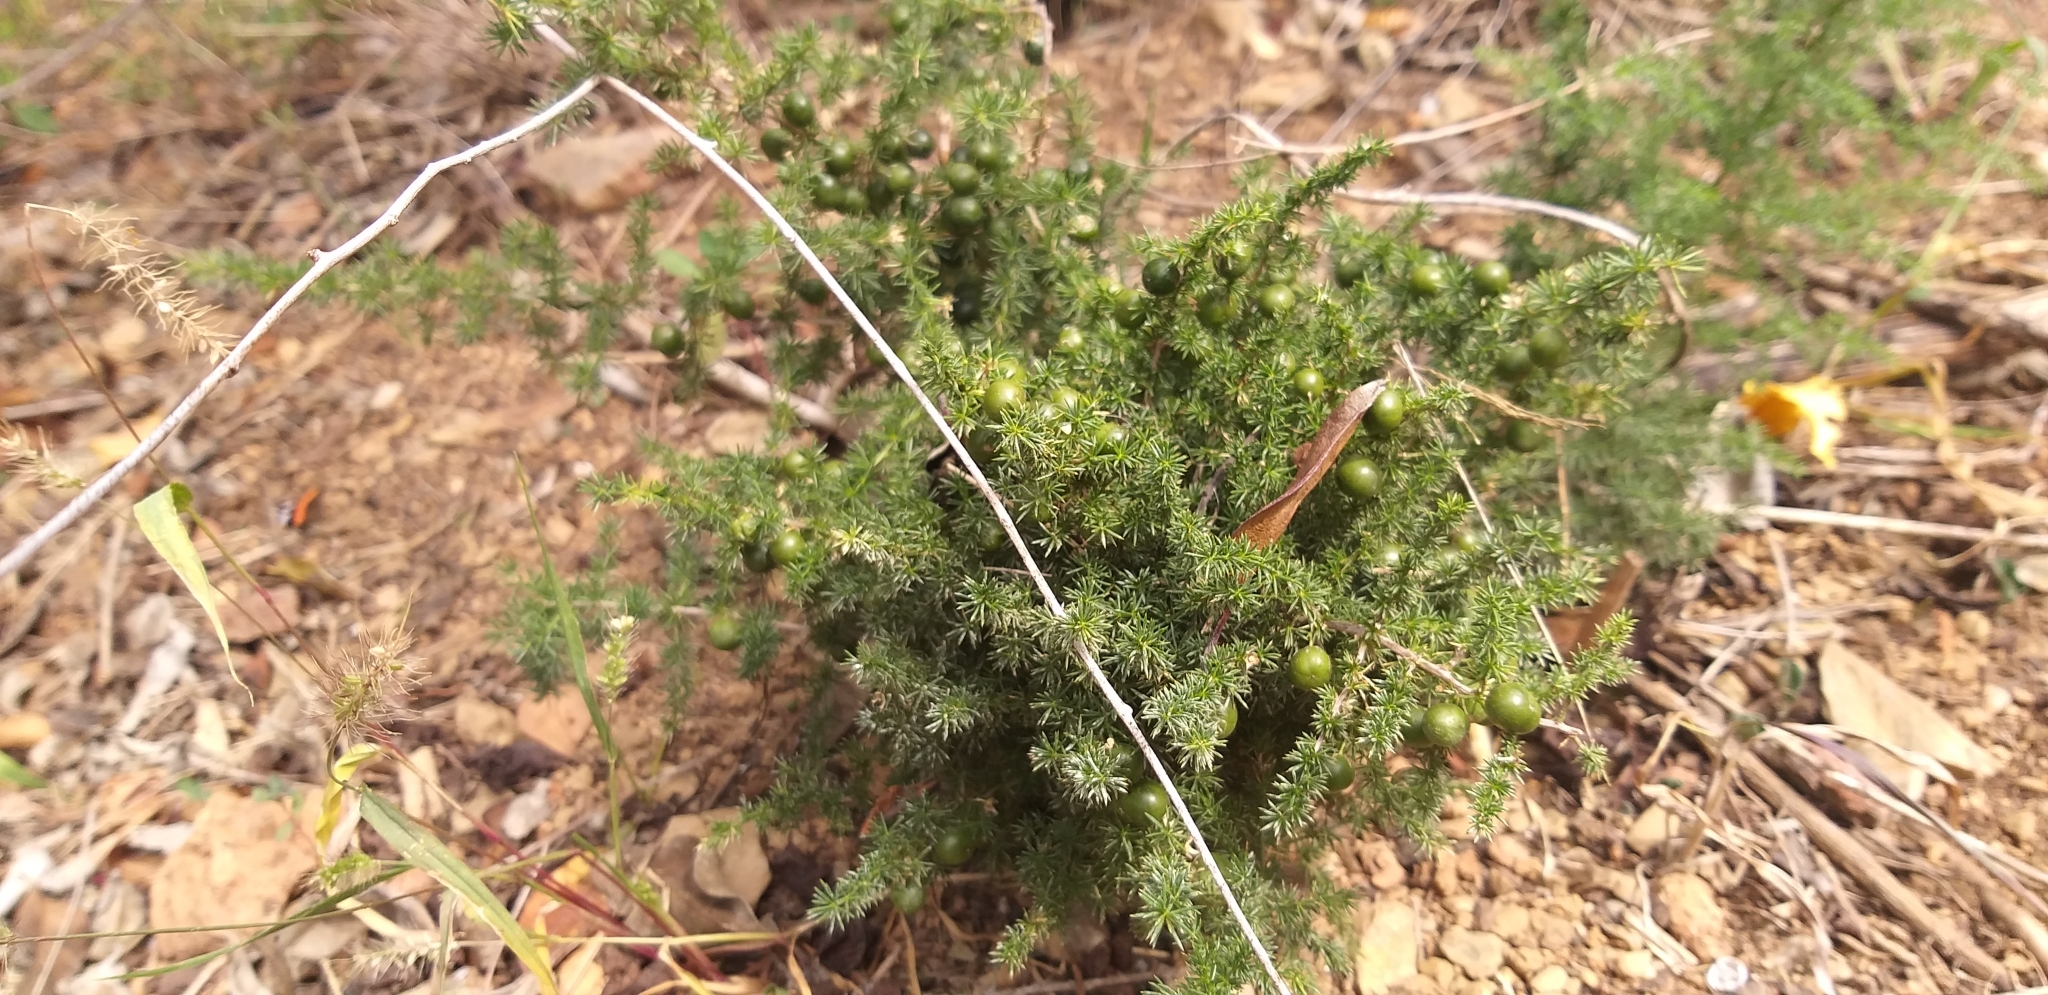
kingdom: Plantae
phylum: Tracheophyta
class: Liliopsida
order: Asparagales
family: Asparagaceae
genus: Asparagus
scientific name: Asparagus acutifolius
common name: Wild asparagus
